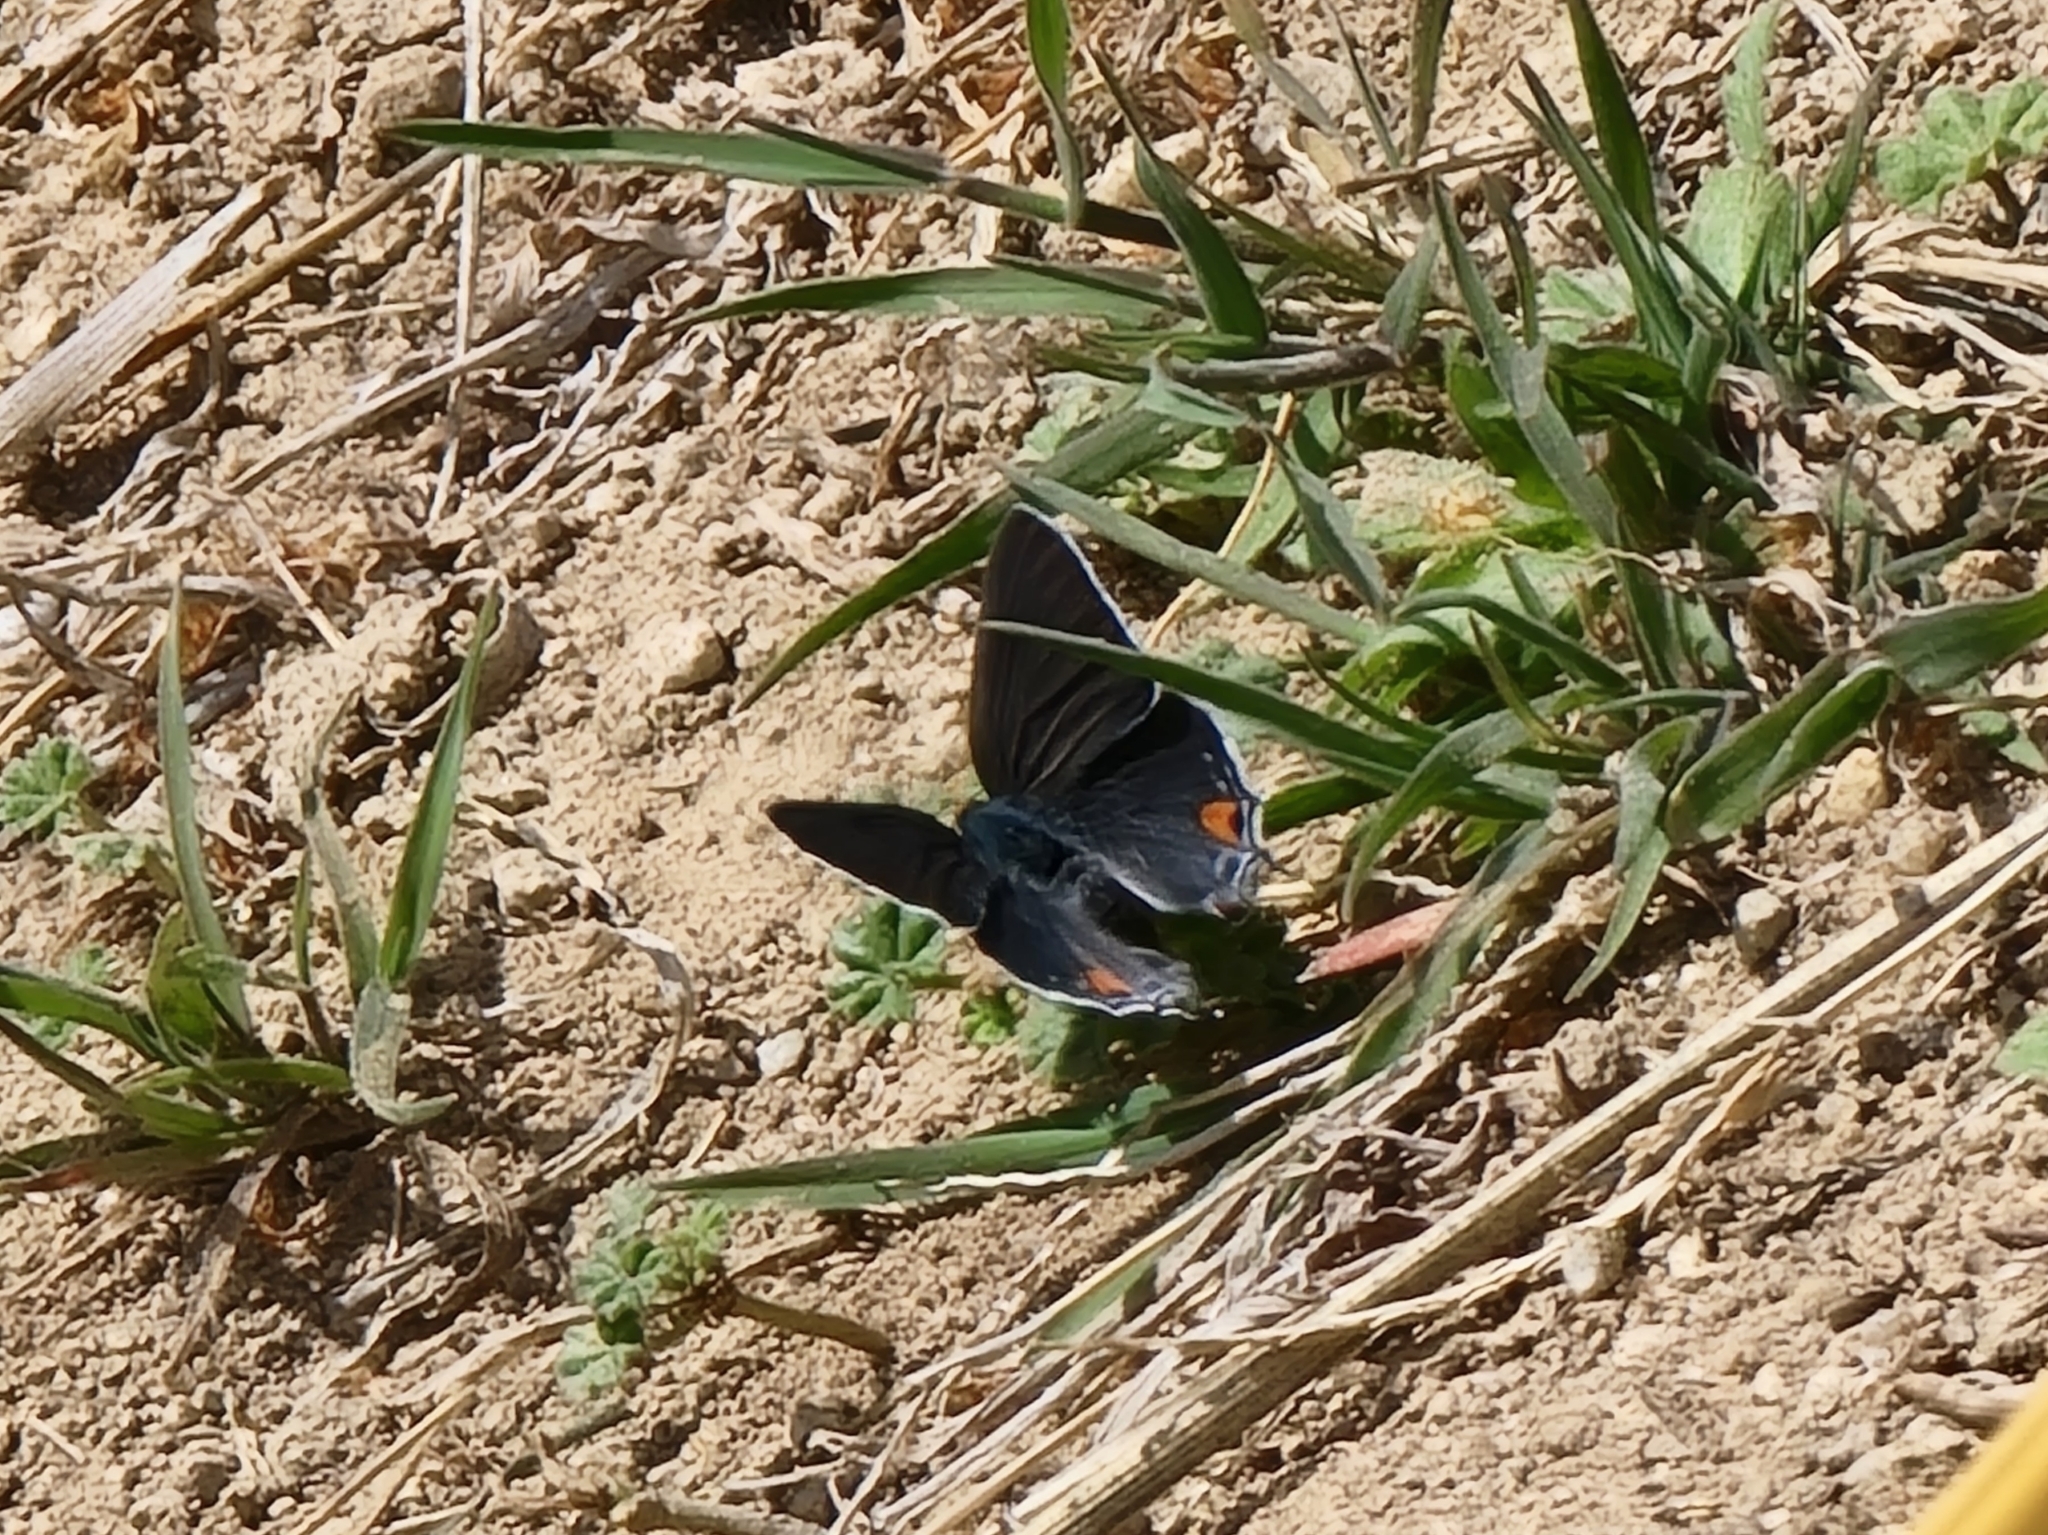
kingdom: Animalia
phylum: Arthropoda
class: Insecta
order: Lepidoptera
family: Lycaenidae
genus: Strymon
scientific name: Strymon melinus
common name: Gray hairstreak
